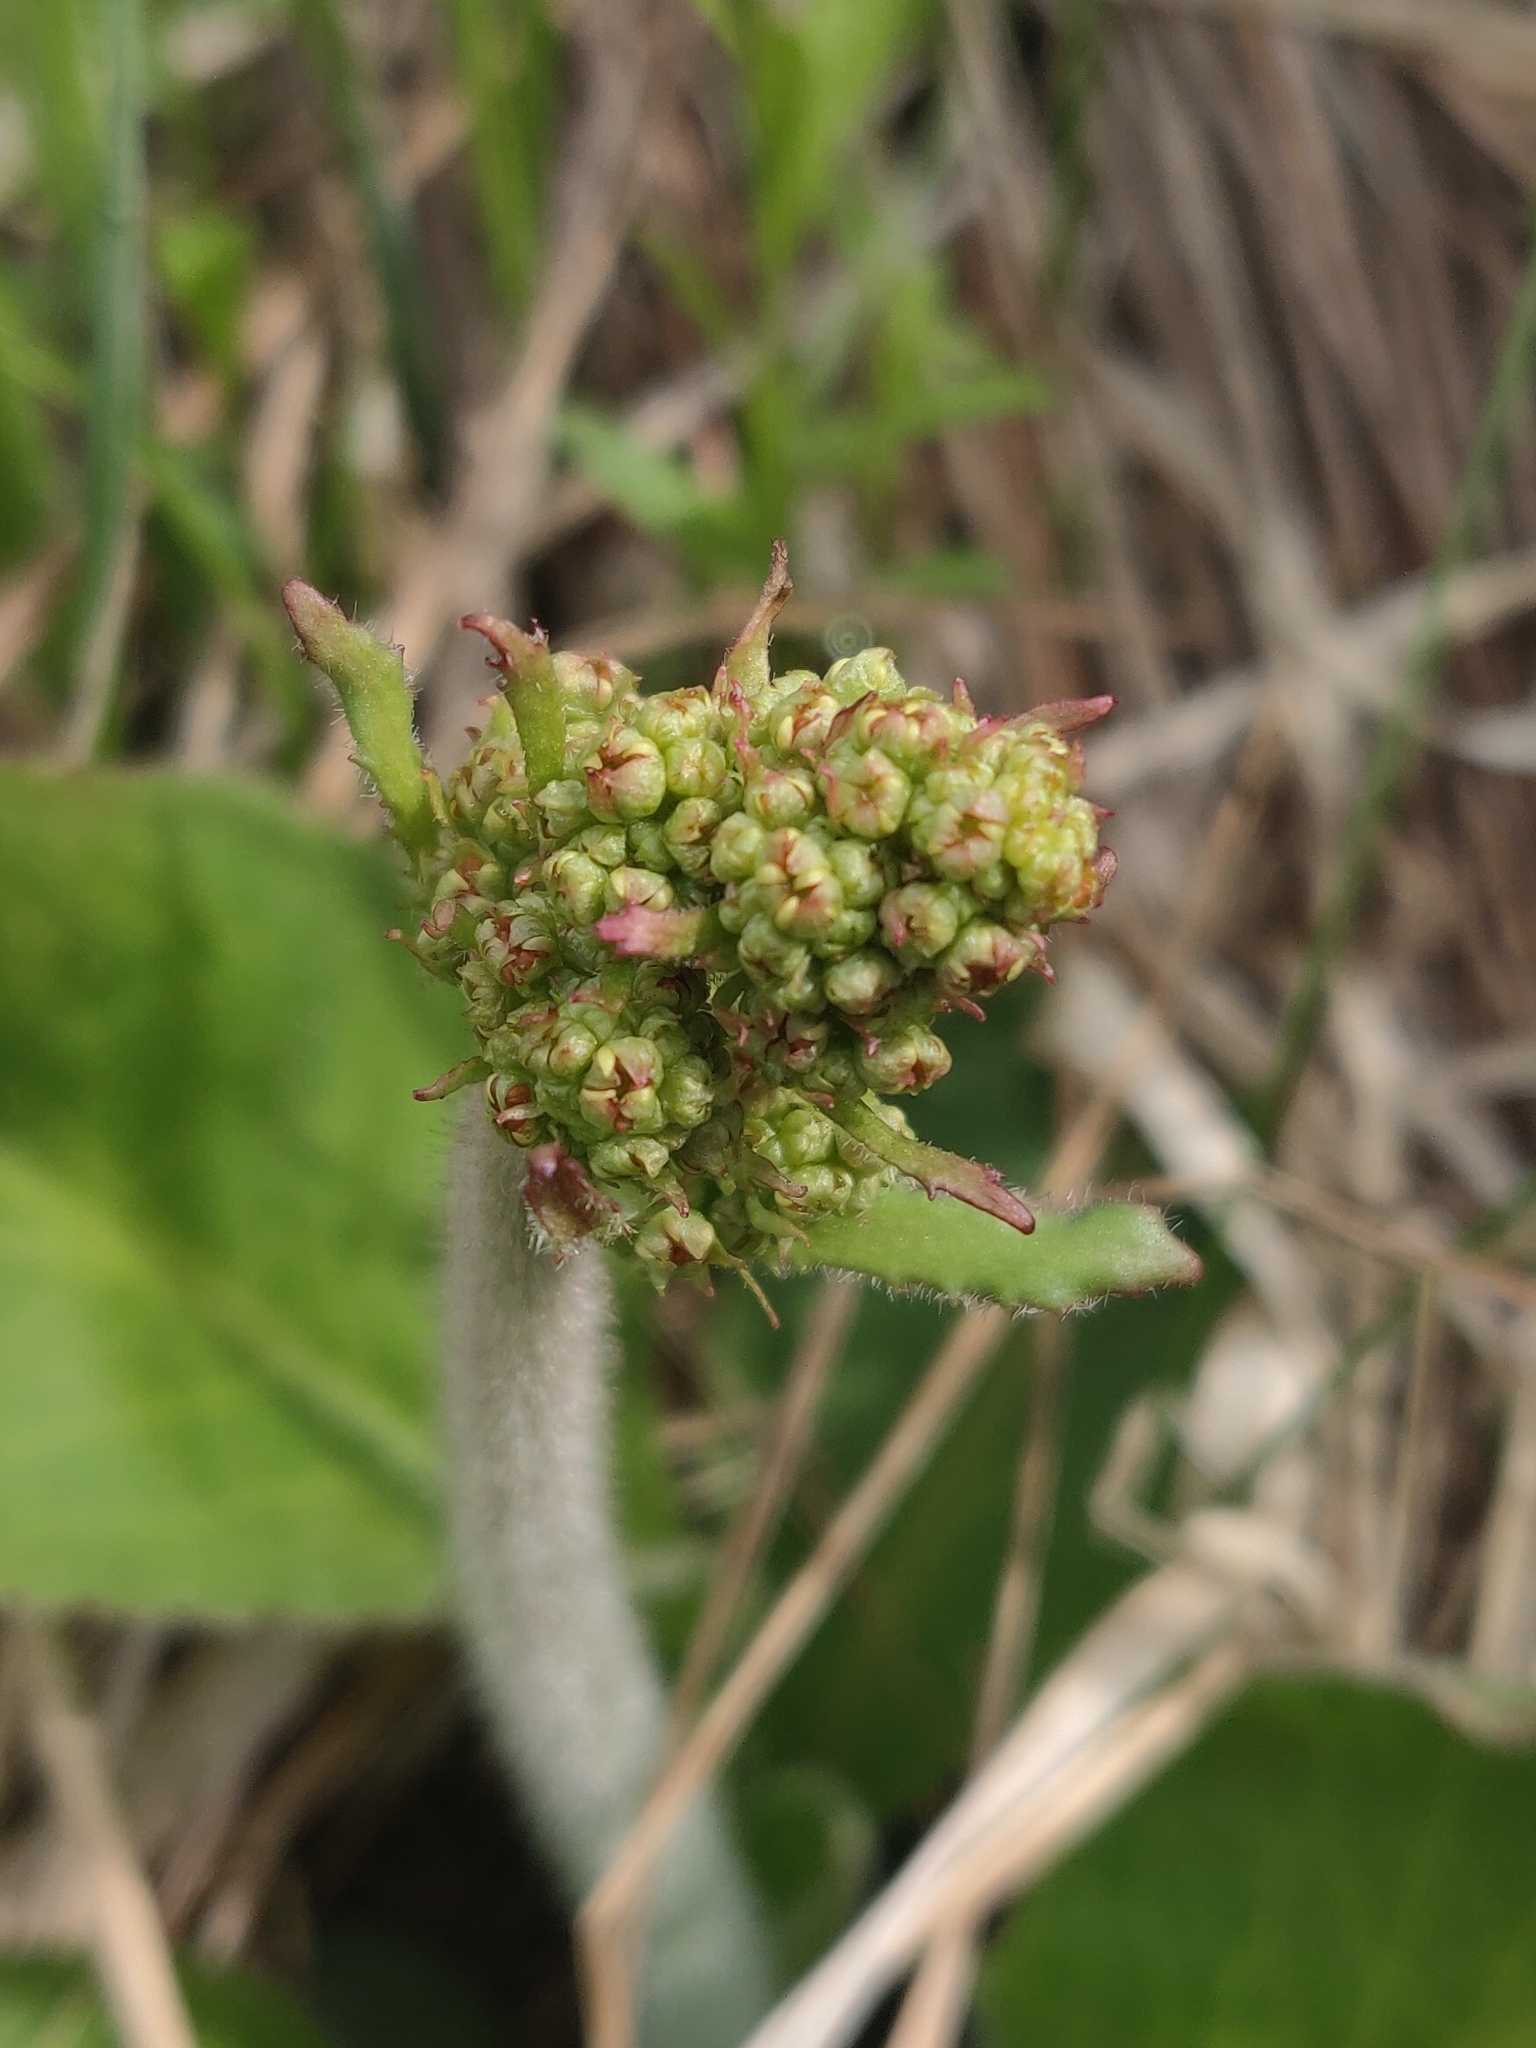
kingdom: Plantae
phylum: Tracheophyta
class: Magnoliopsida
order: Saxifragales
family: Saxifragaceae
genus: Micranthes
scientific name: Micranthes pensylvanica
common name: Marsh saxifrage
